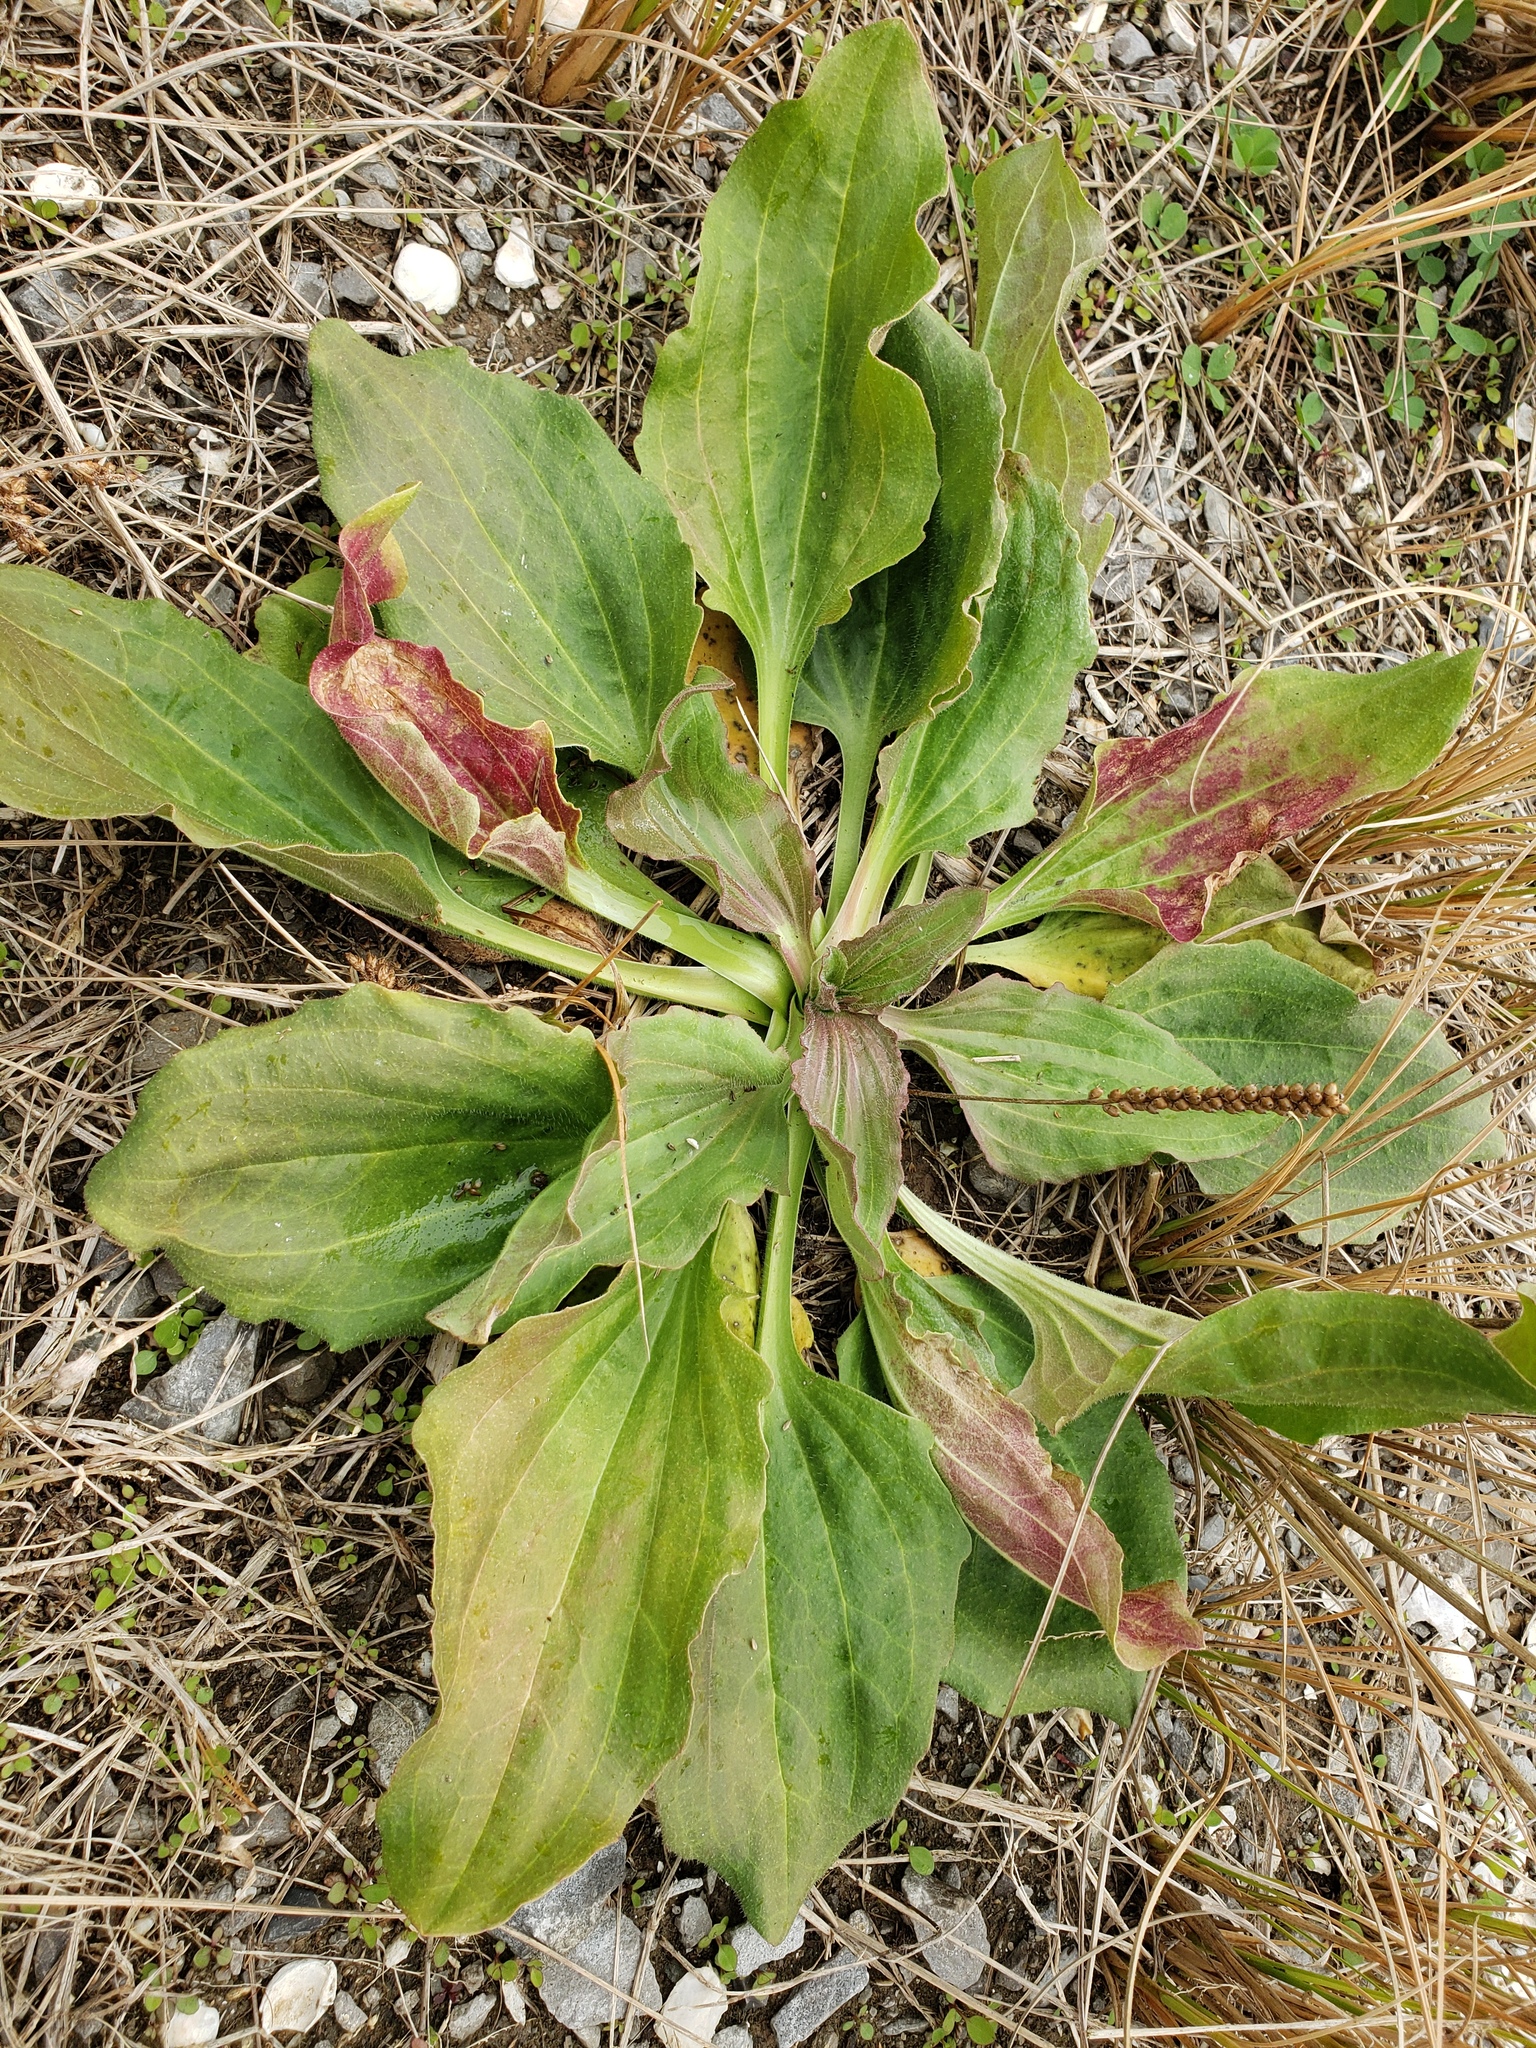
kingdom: Plantae
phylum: Tracheophyta
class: Magnoliopsida
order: Lamiales
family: Plantaginaceae
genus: Plantago
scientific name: Plantago major
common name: Common plantain
